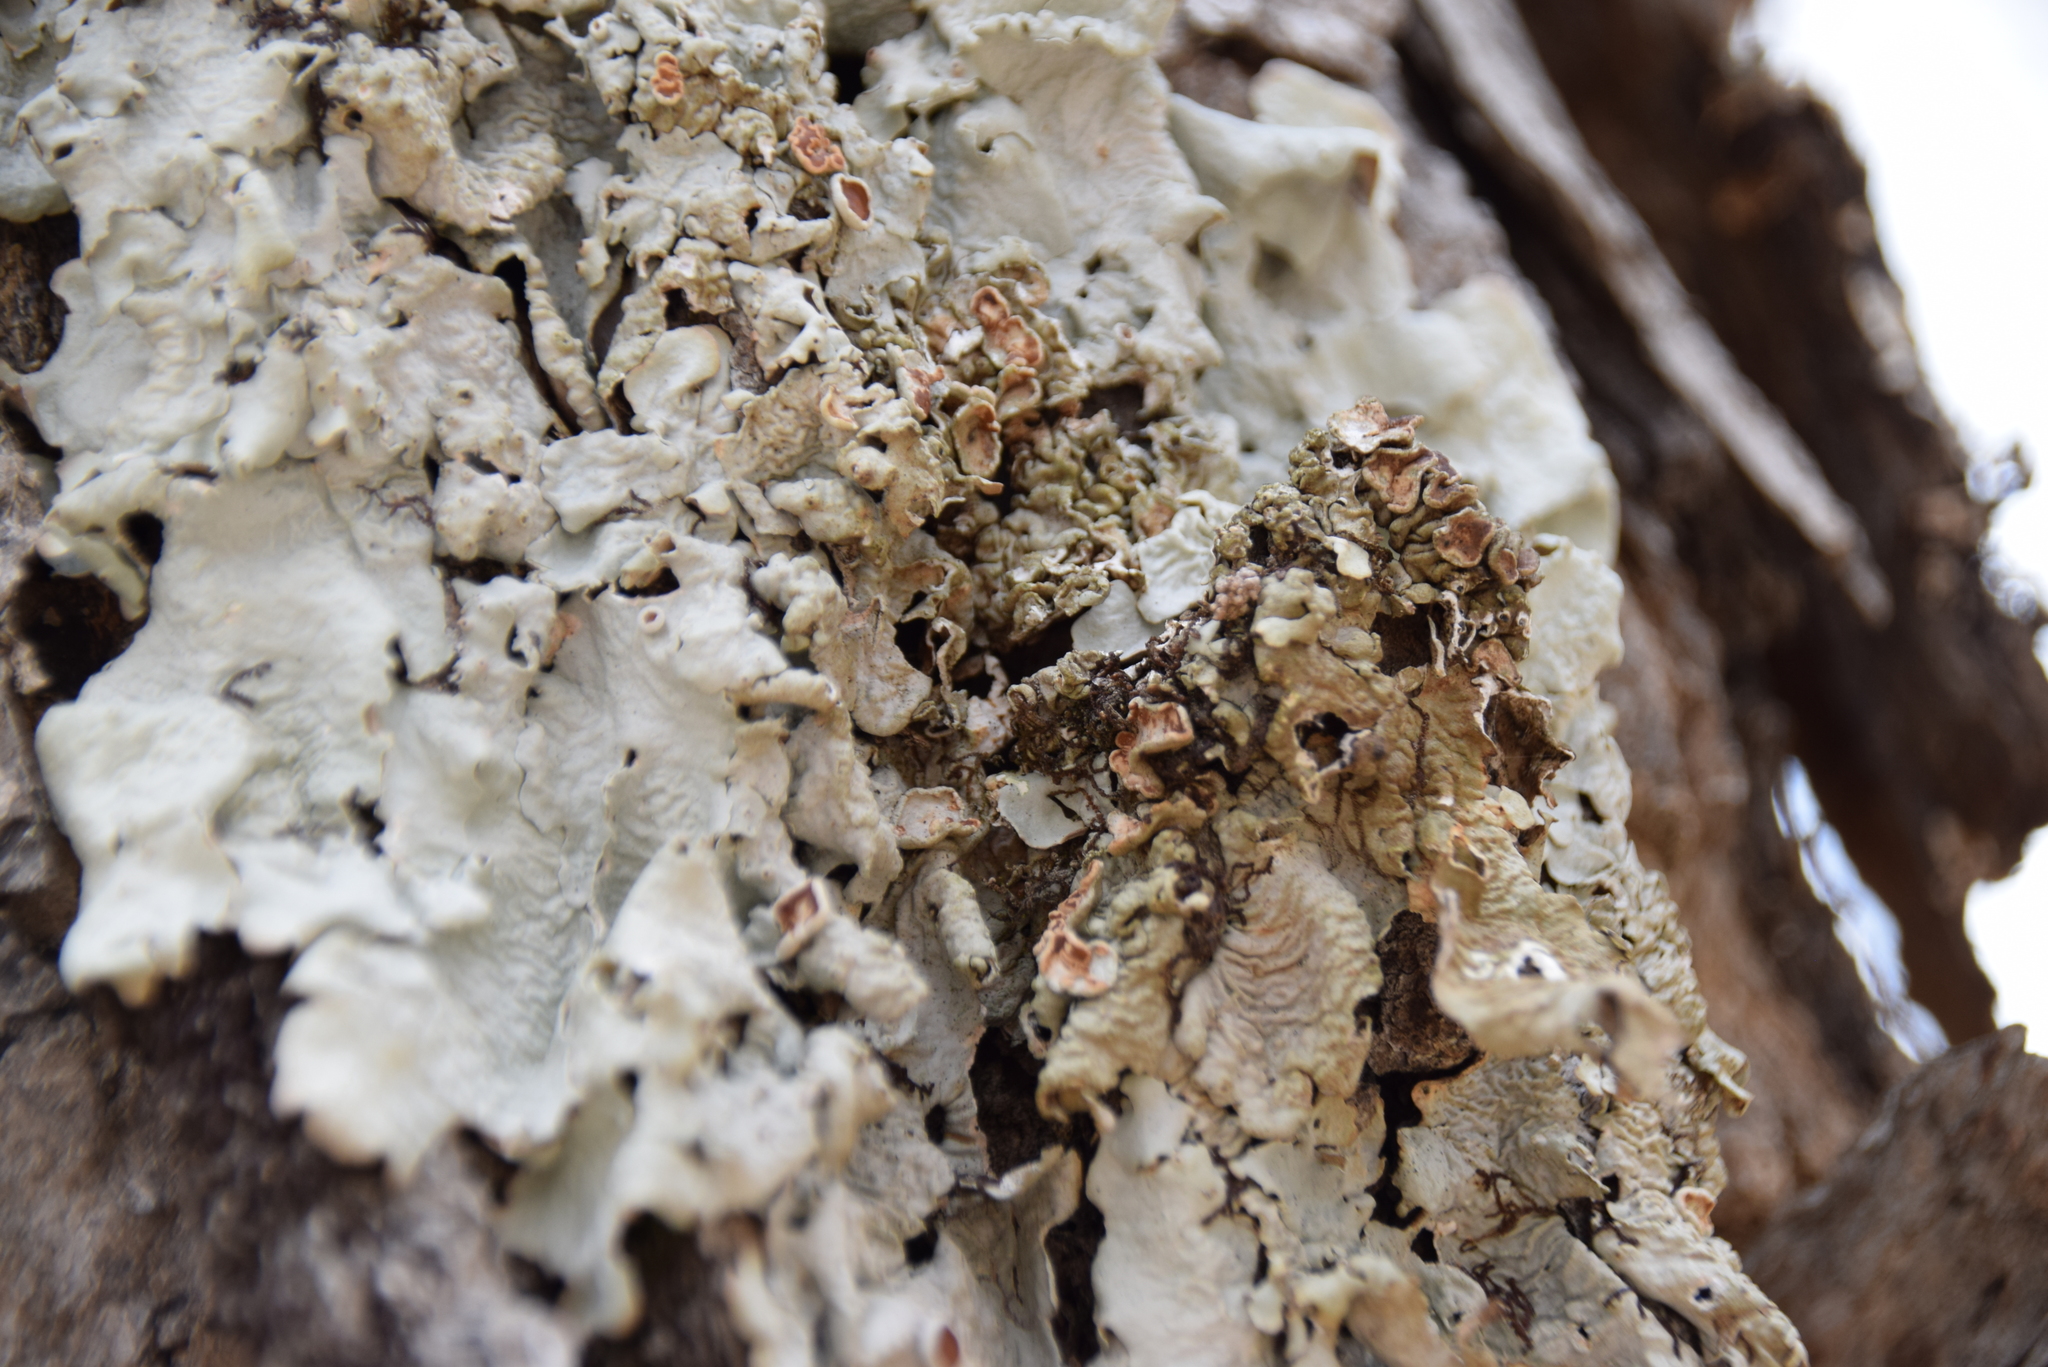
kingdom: Fungi
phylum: Ascomycota
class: Lecanoromycetes
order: Peltigerales
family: Lobariaceae
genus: Ricasolia
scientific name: Ricasolia quercizans
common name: Smooth lungwort
